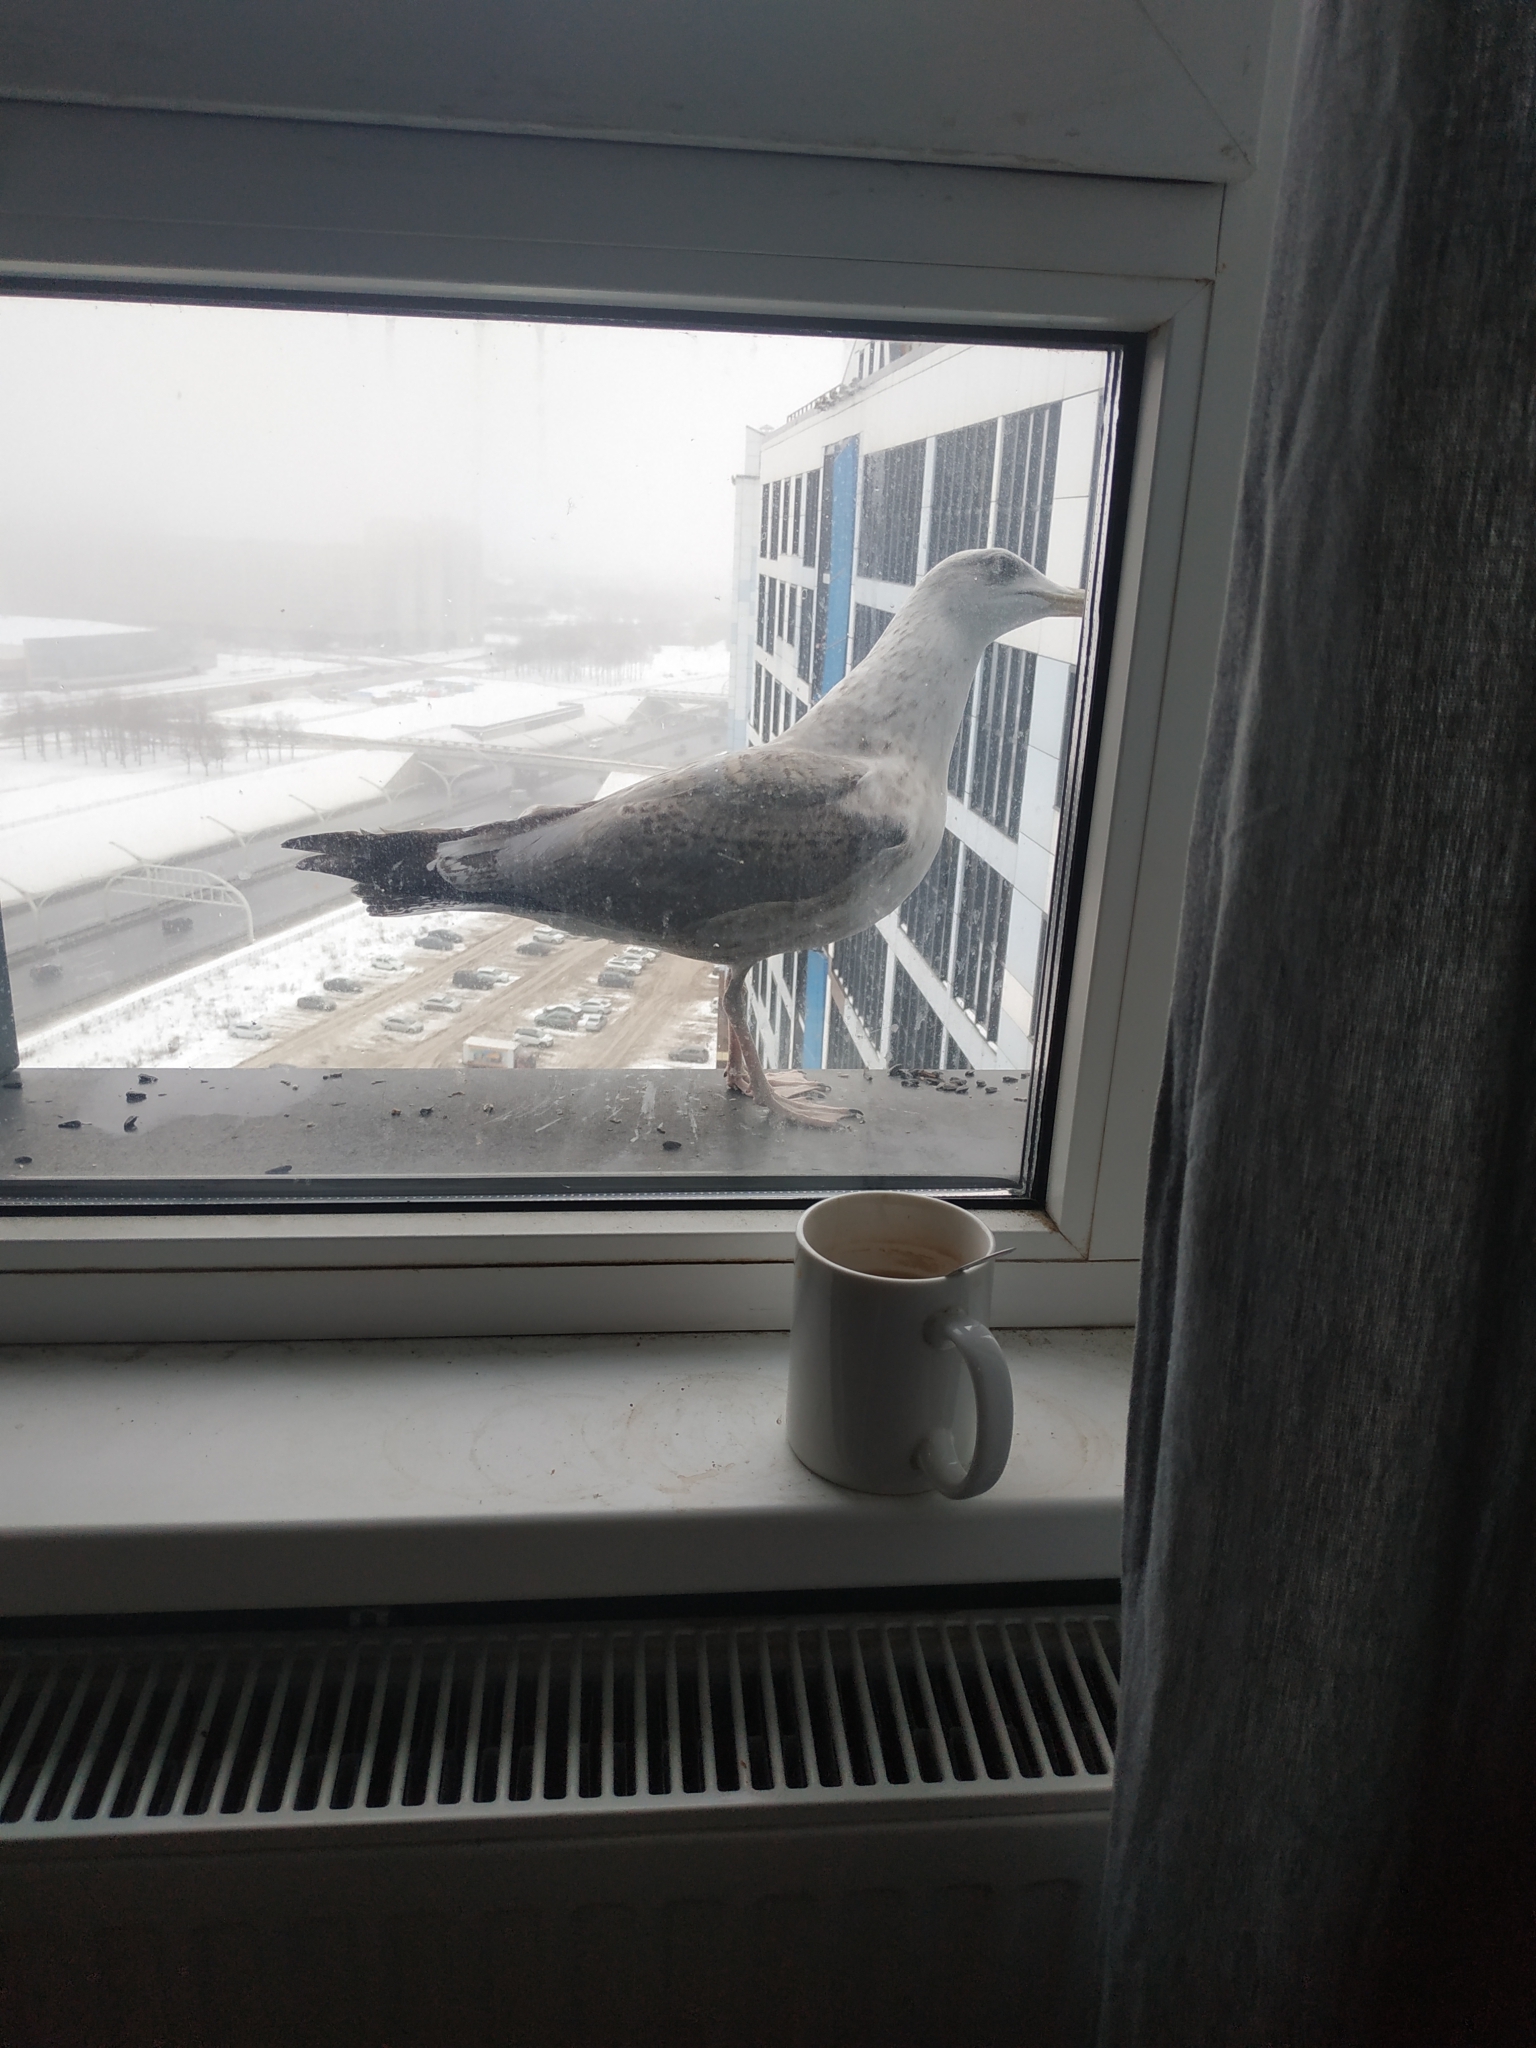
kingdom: Animalia
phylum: Chordata
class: Aves
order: Charadriiformes
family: Laridae
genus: Larus
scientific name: Larus argentatus
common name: Herring gull
